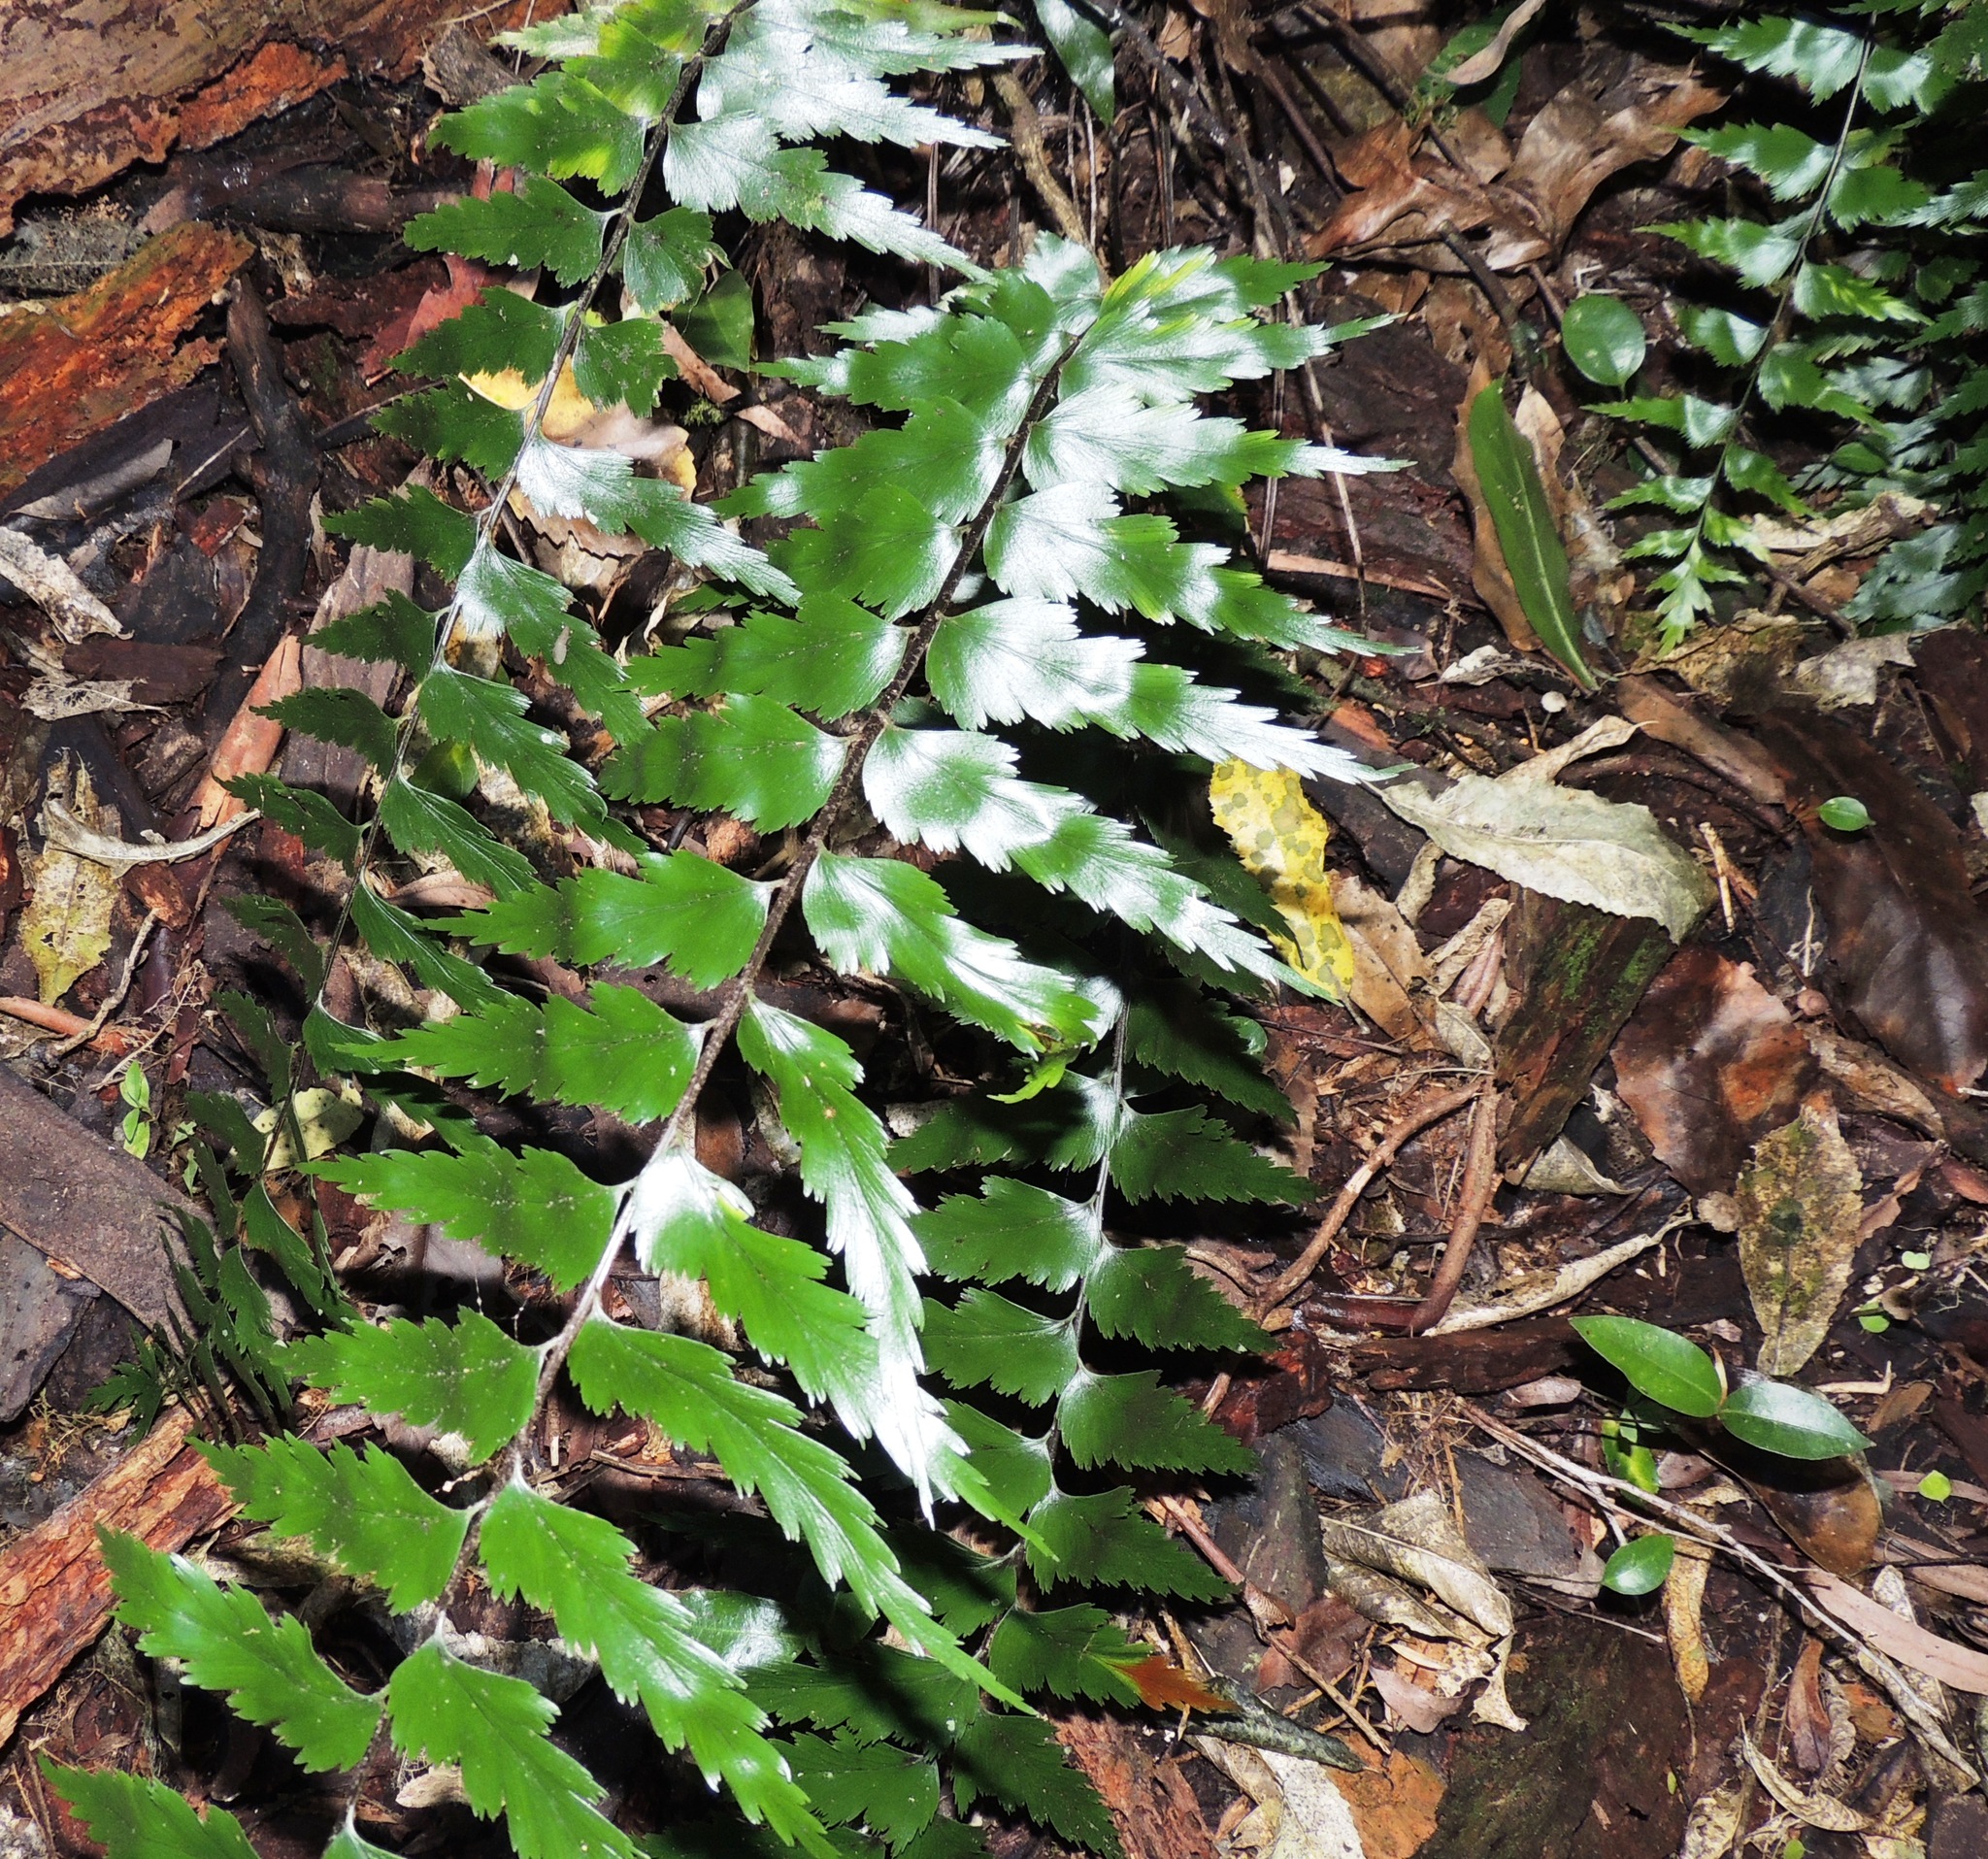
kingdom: Plantae
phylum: Tracheophyta
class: Polypodiopsida
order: Polypodiales
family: Aspleniaceae
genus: Asplenium
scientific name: Asplenium polyodon
